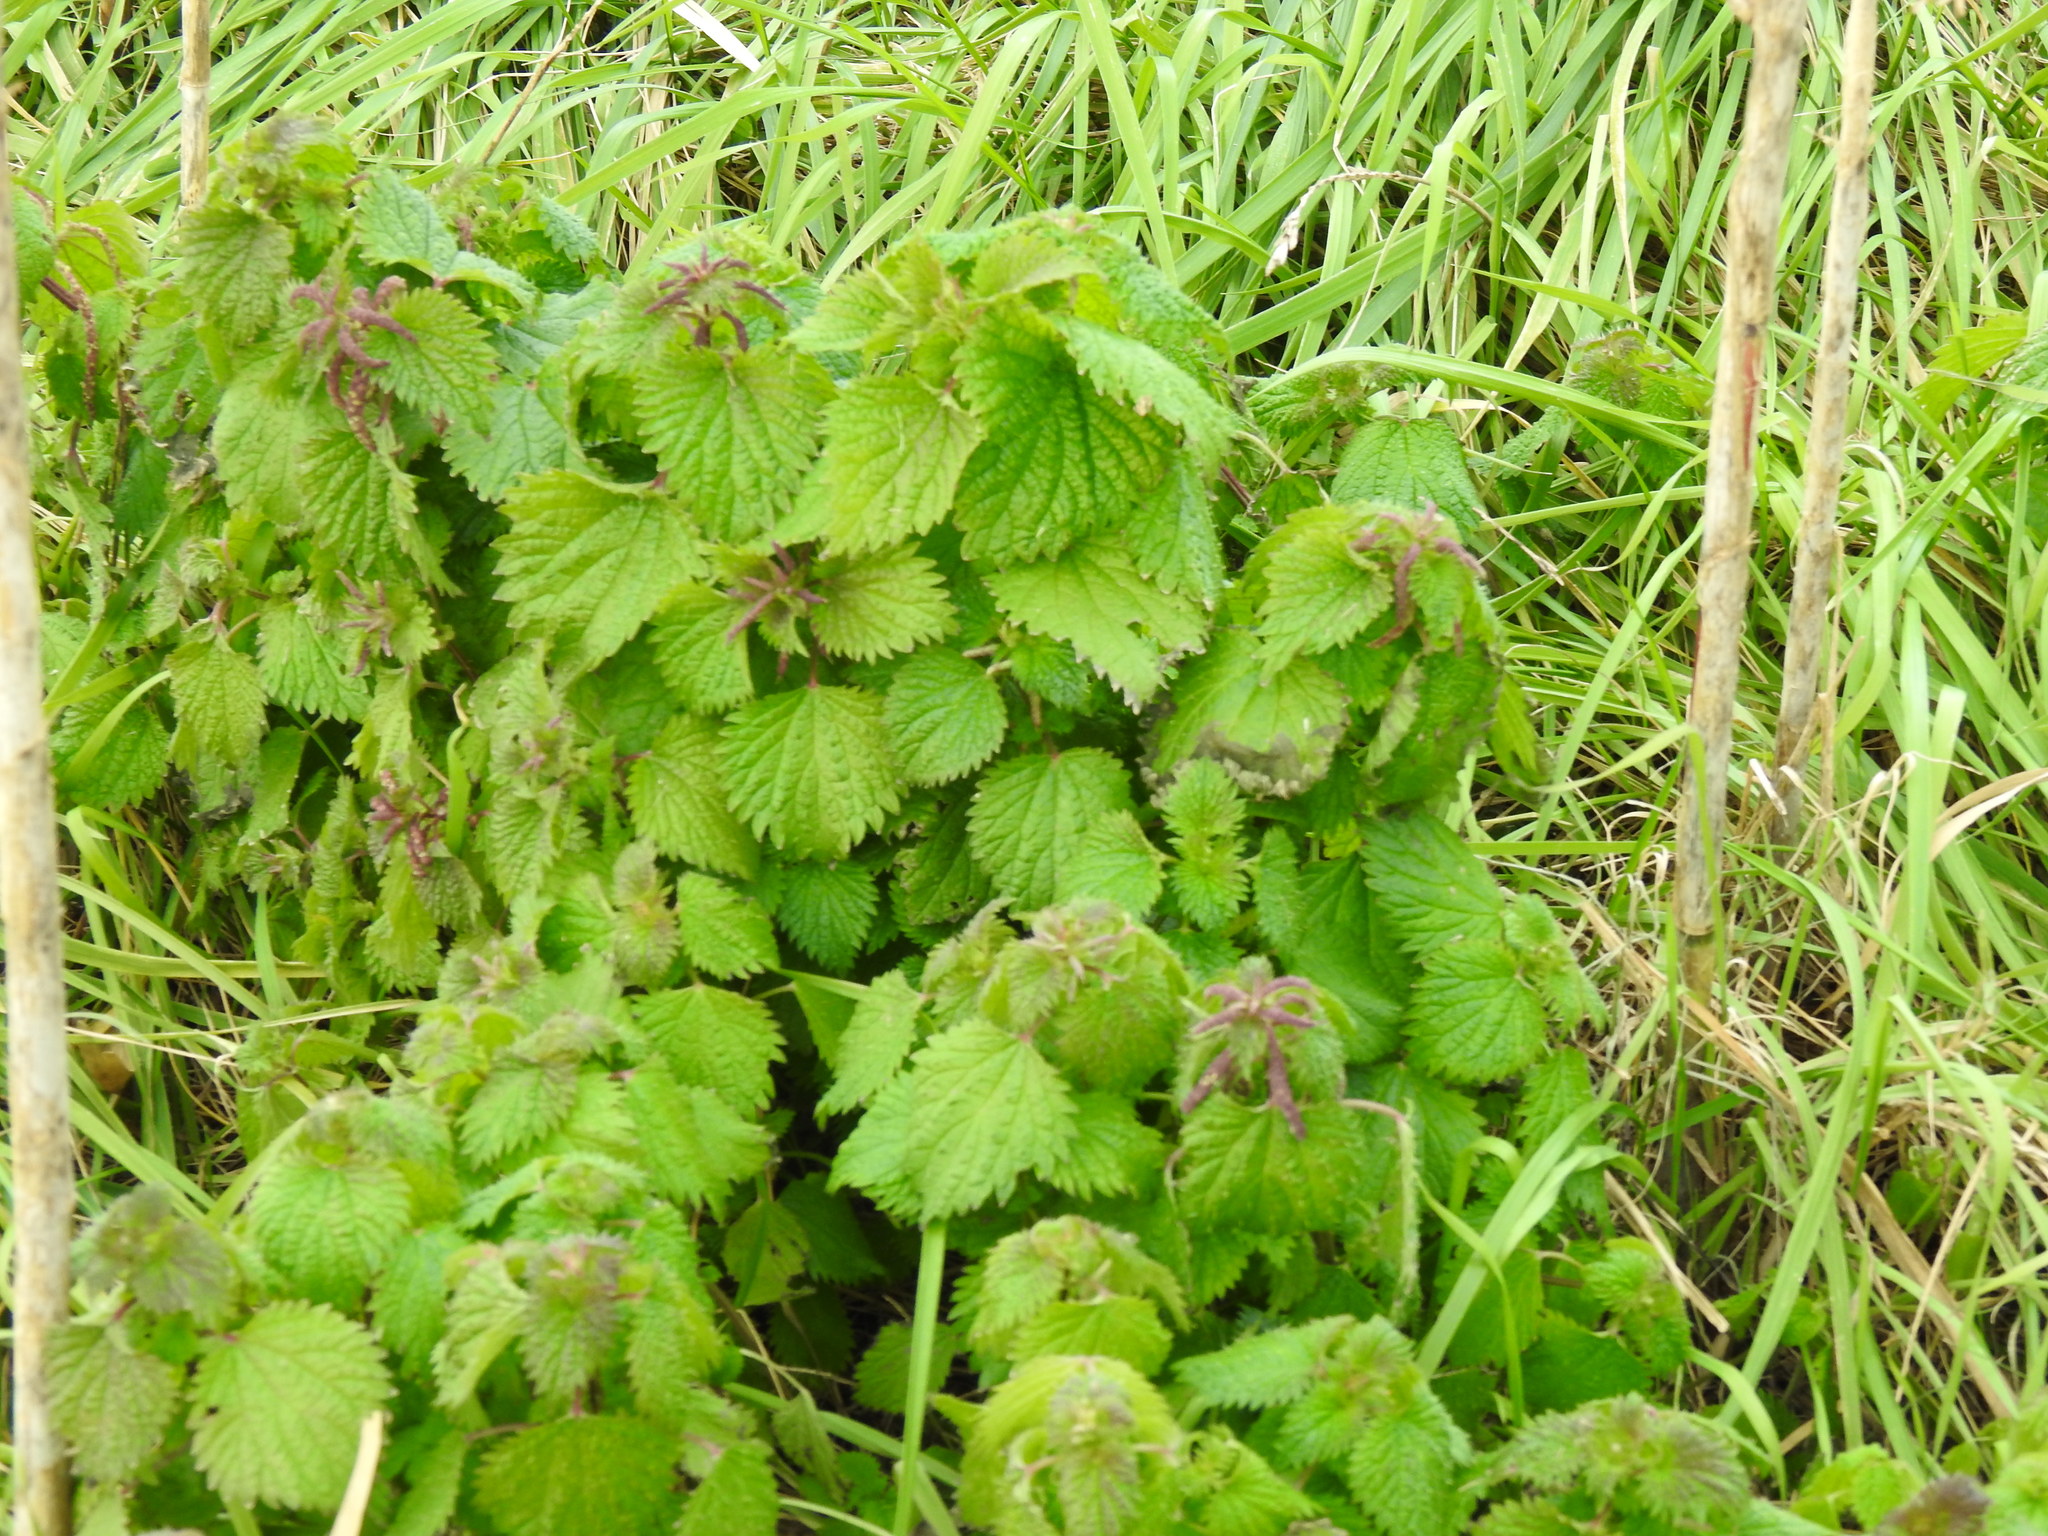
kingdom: Plantae
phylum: Tracheophyta
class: Magnoliopsida
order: Rosales
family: Urticaceae
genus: Urtica
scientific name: Urtica membranacea
